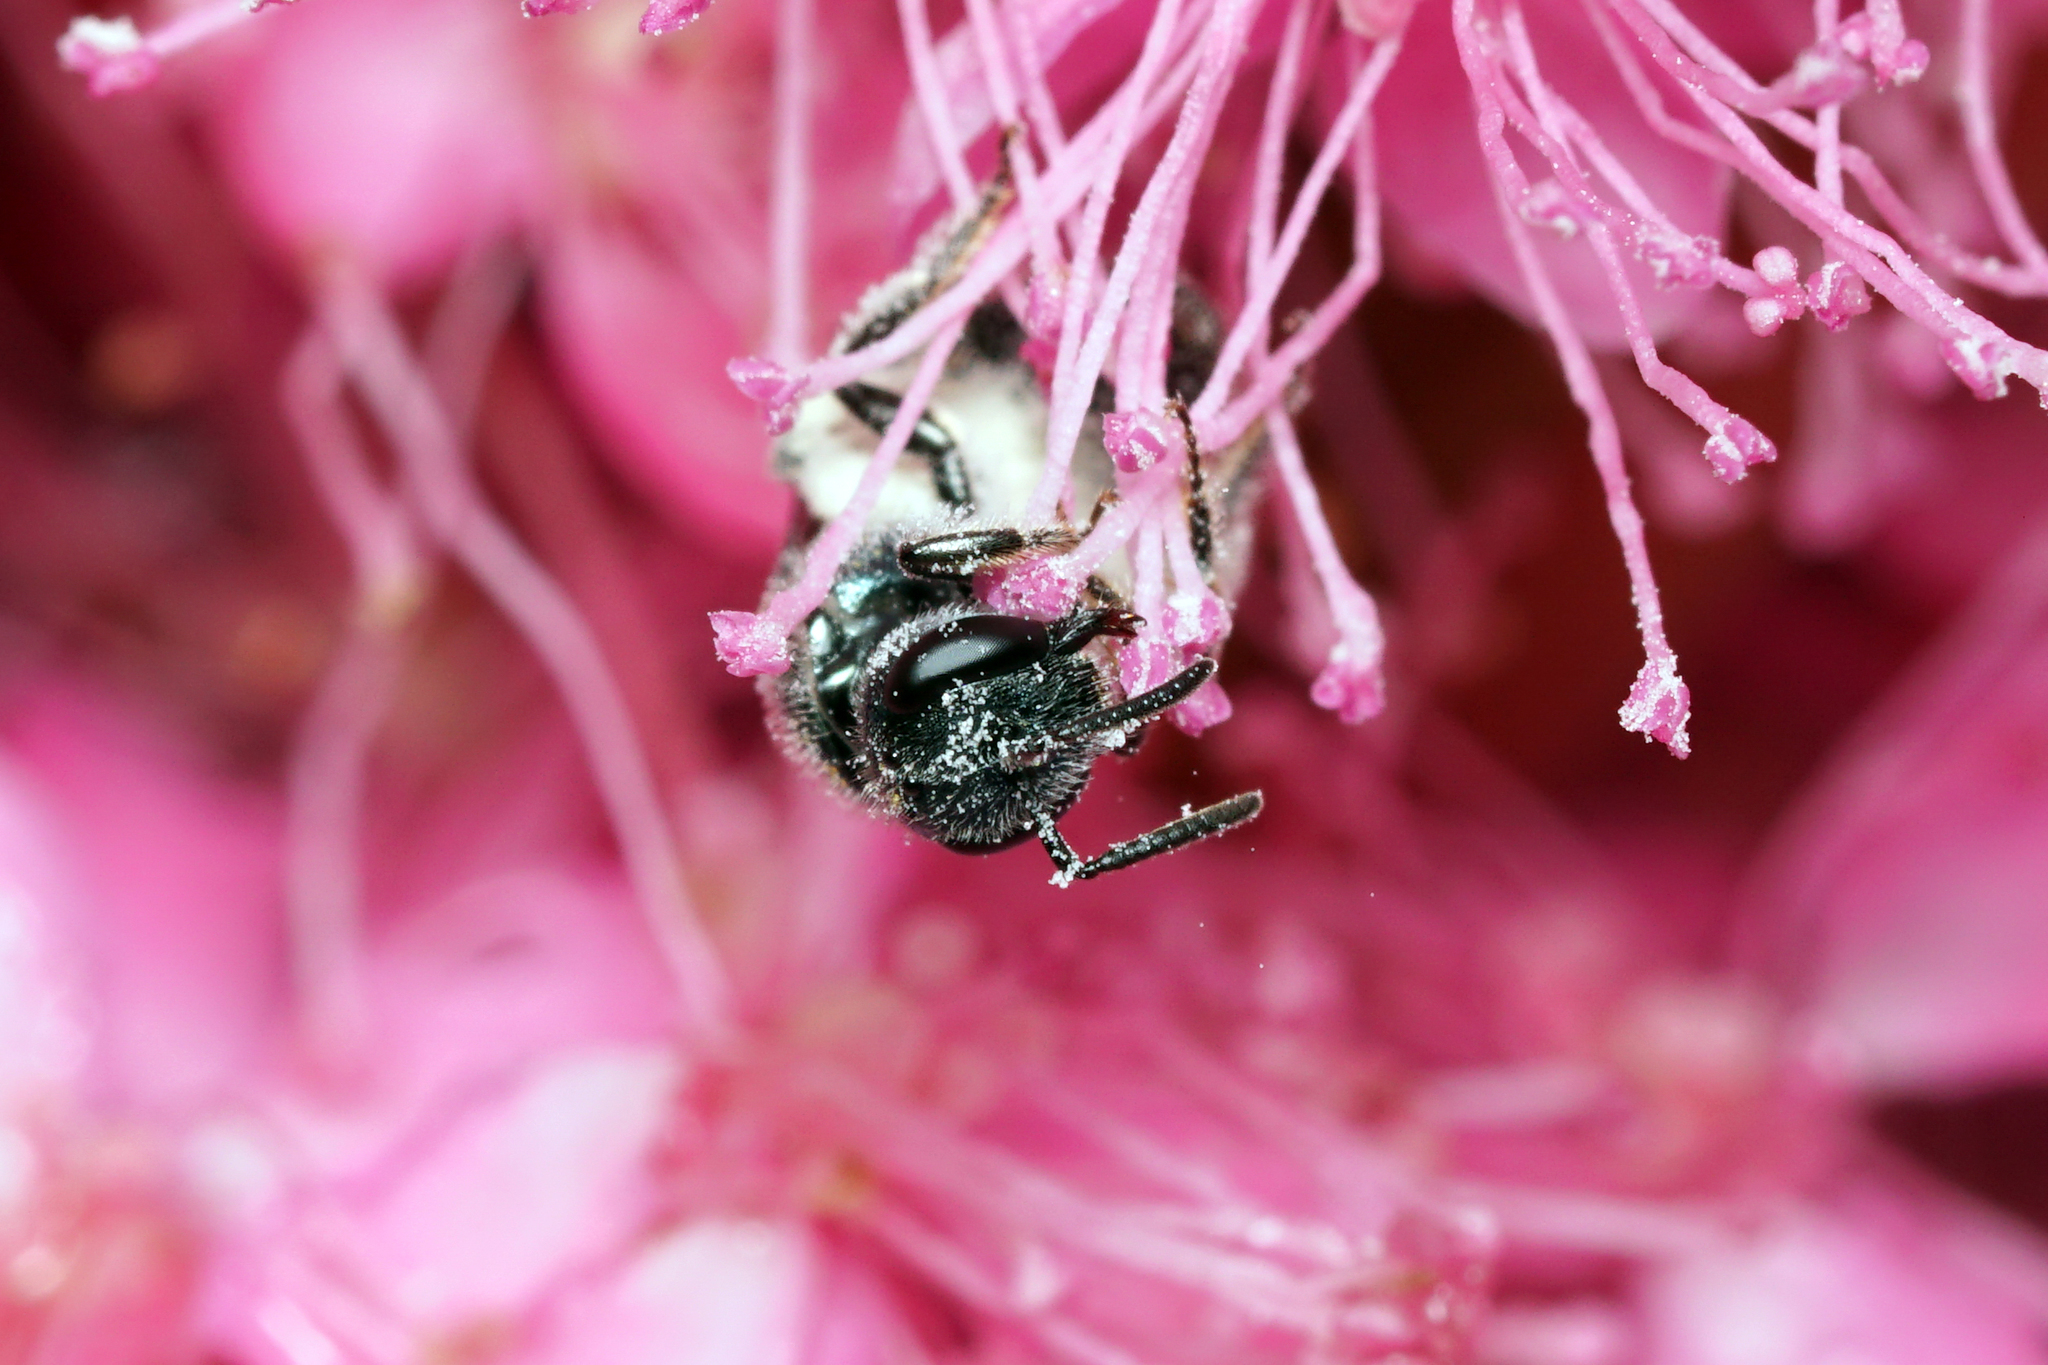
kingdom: Animalia
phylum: Arthropoda
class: Insecta
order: Hymenoptera
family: Halictidae
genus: Lasioglossum
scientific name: Lasioglossum coeruleum
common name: Deep-blue sweat bee
